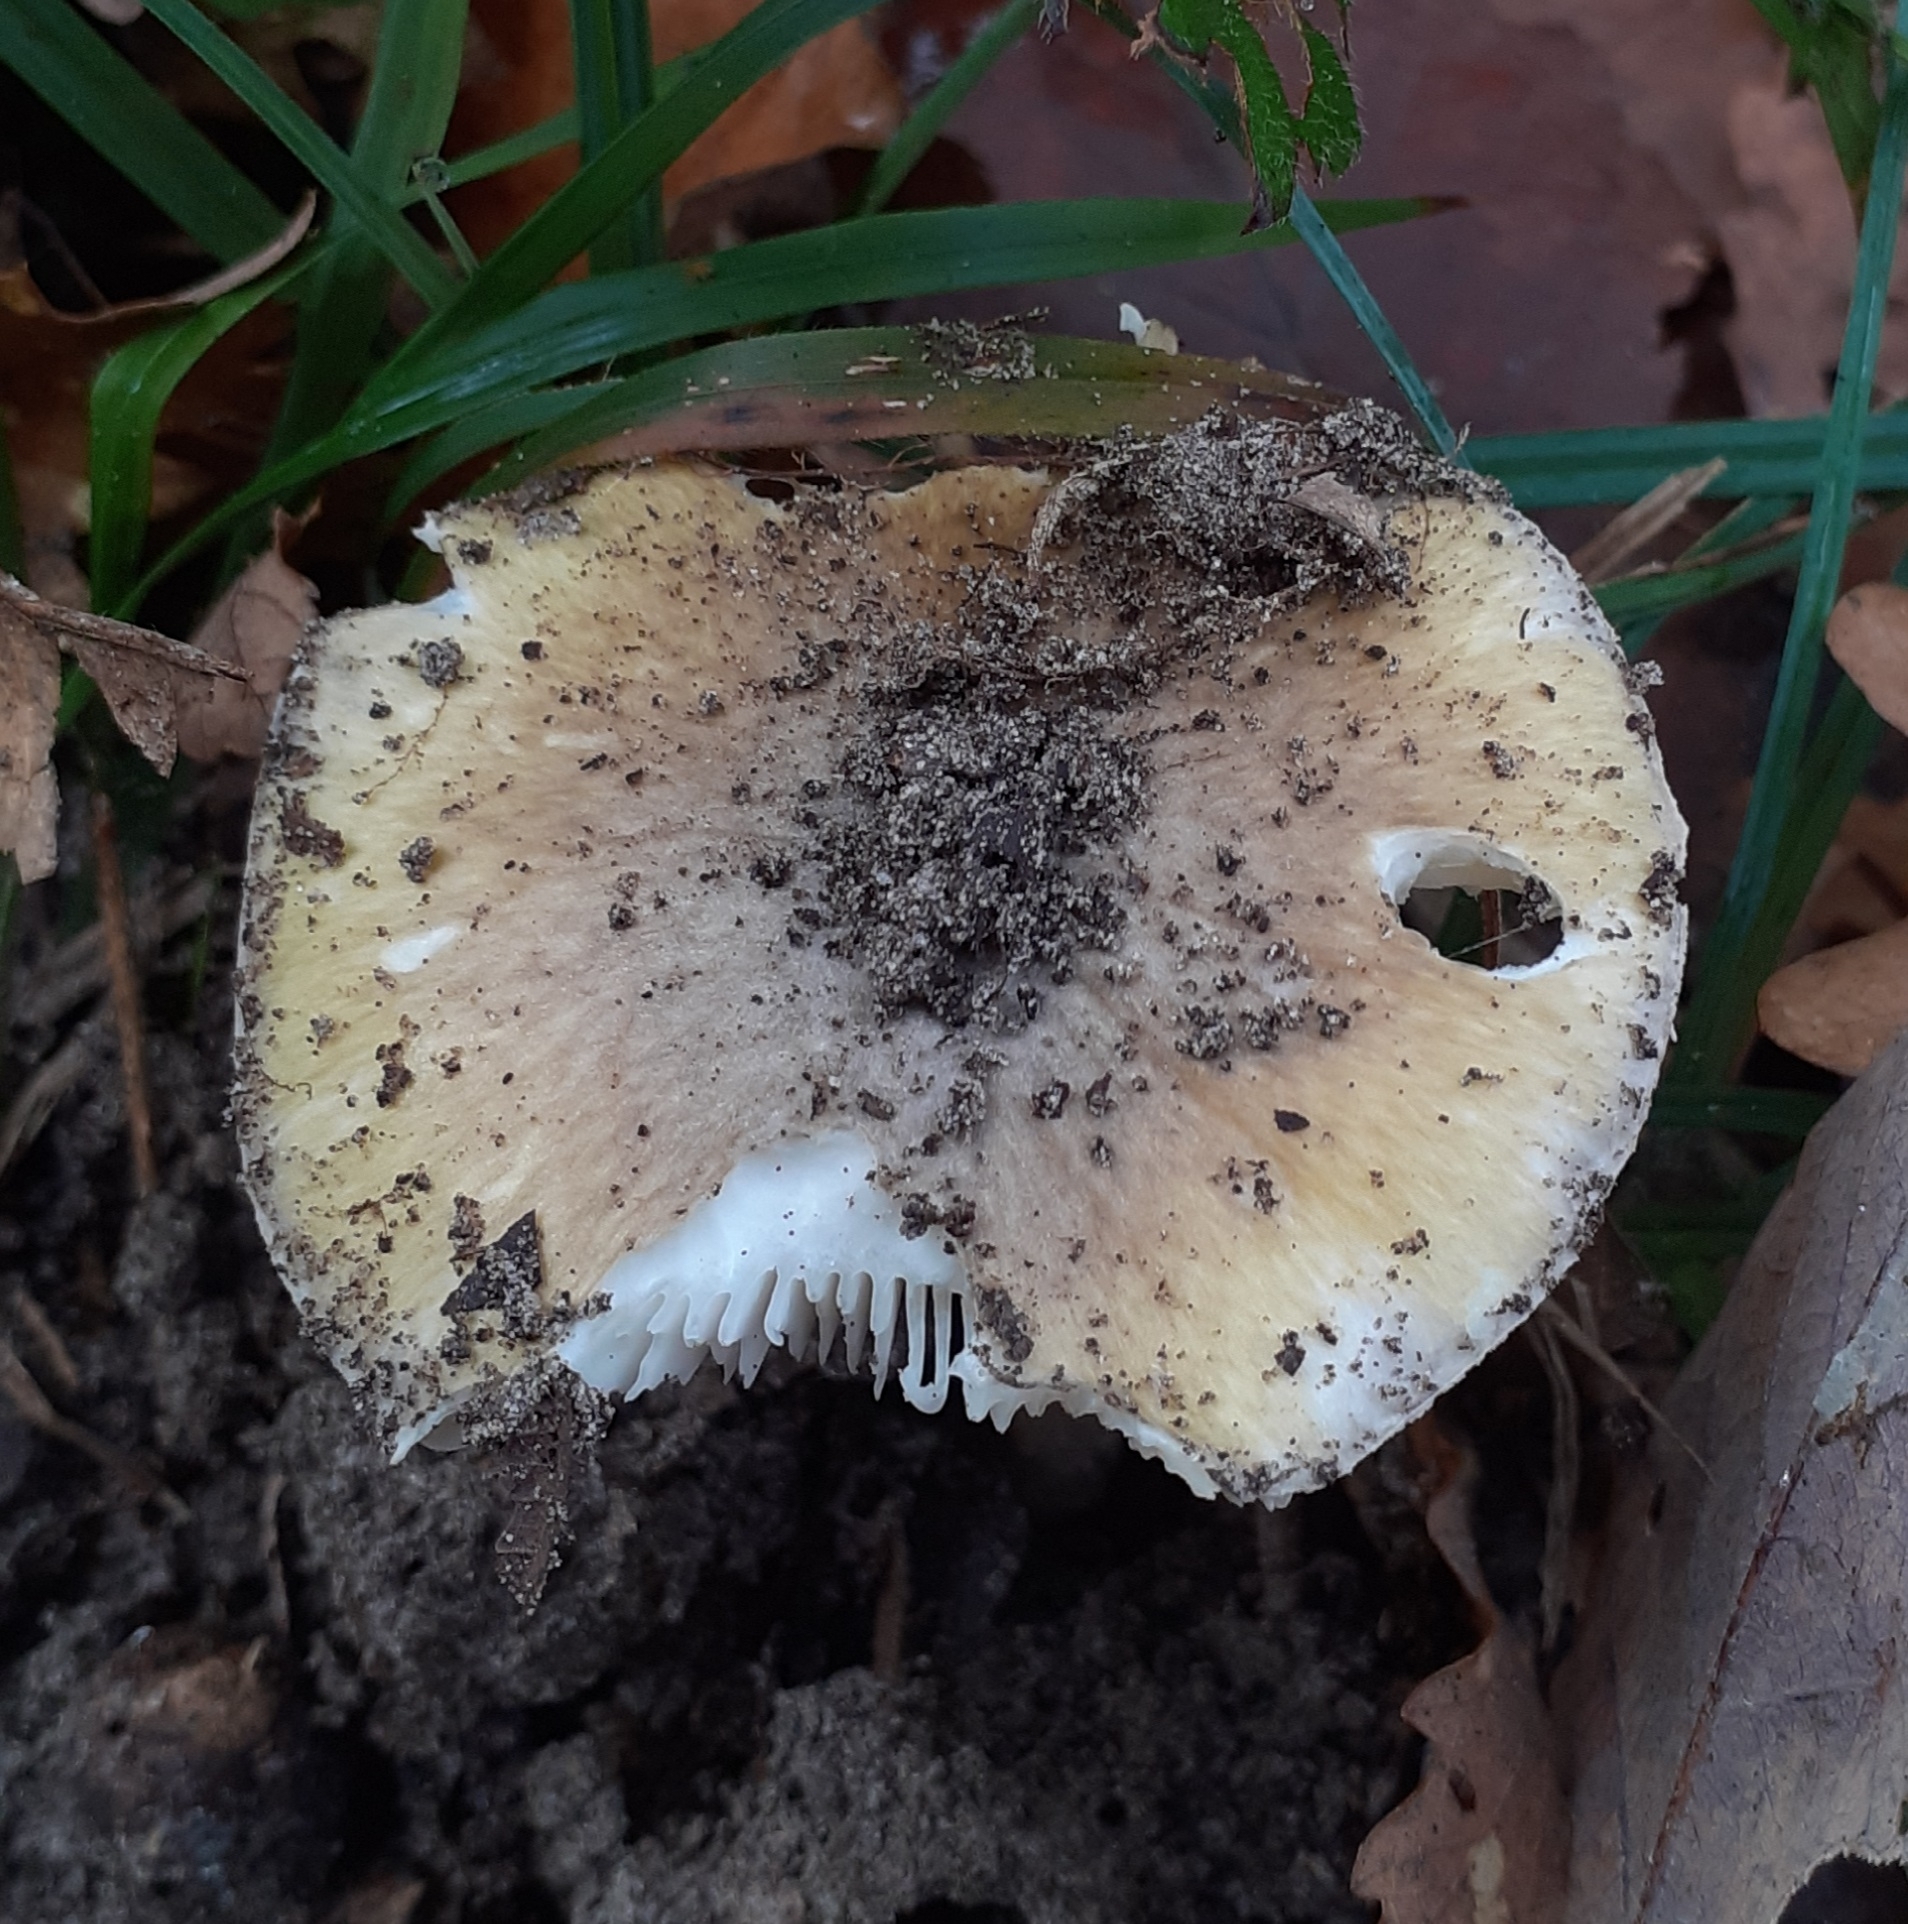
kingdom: Fungi
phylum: Basidiomycota
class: Agaricomycetes
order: Agaricales
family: Amanitaceae
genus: Amanita
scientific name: Amanita phalloides
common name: Death cap
